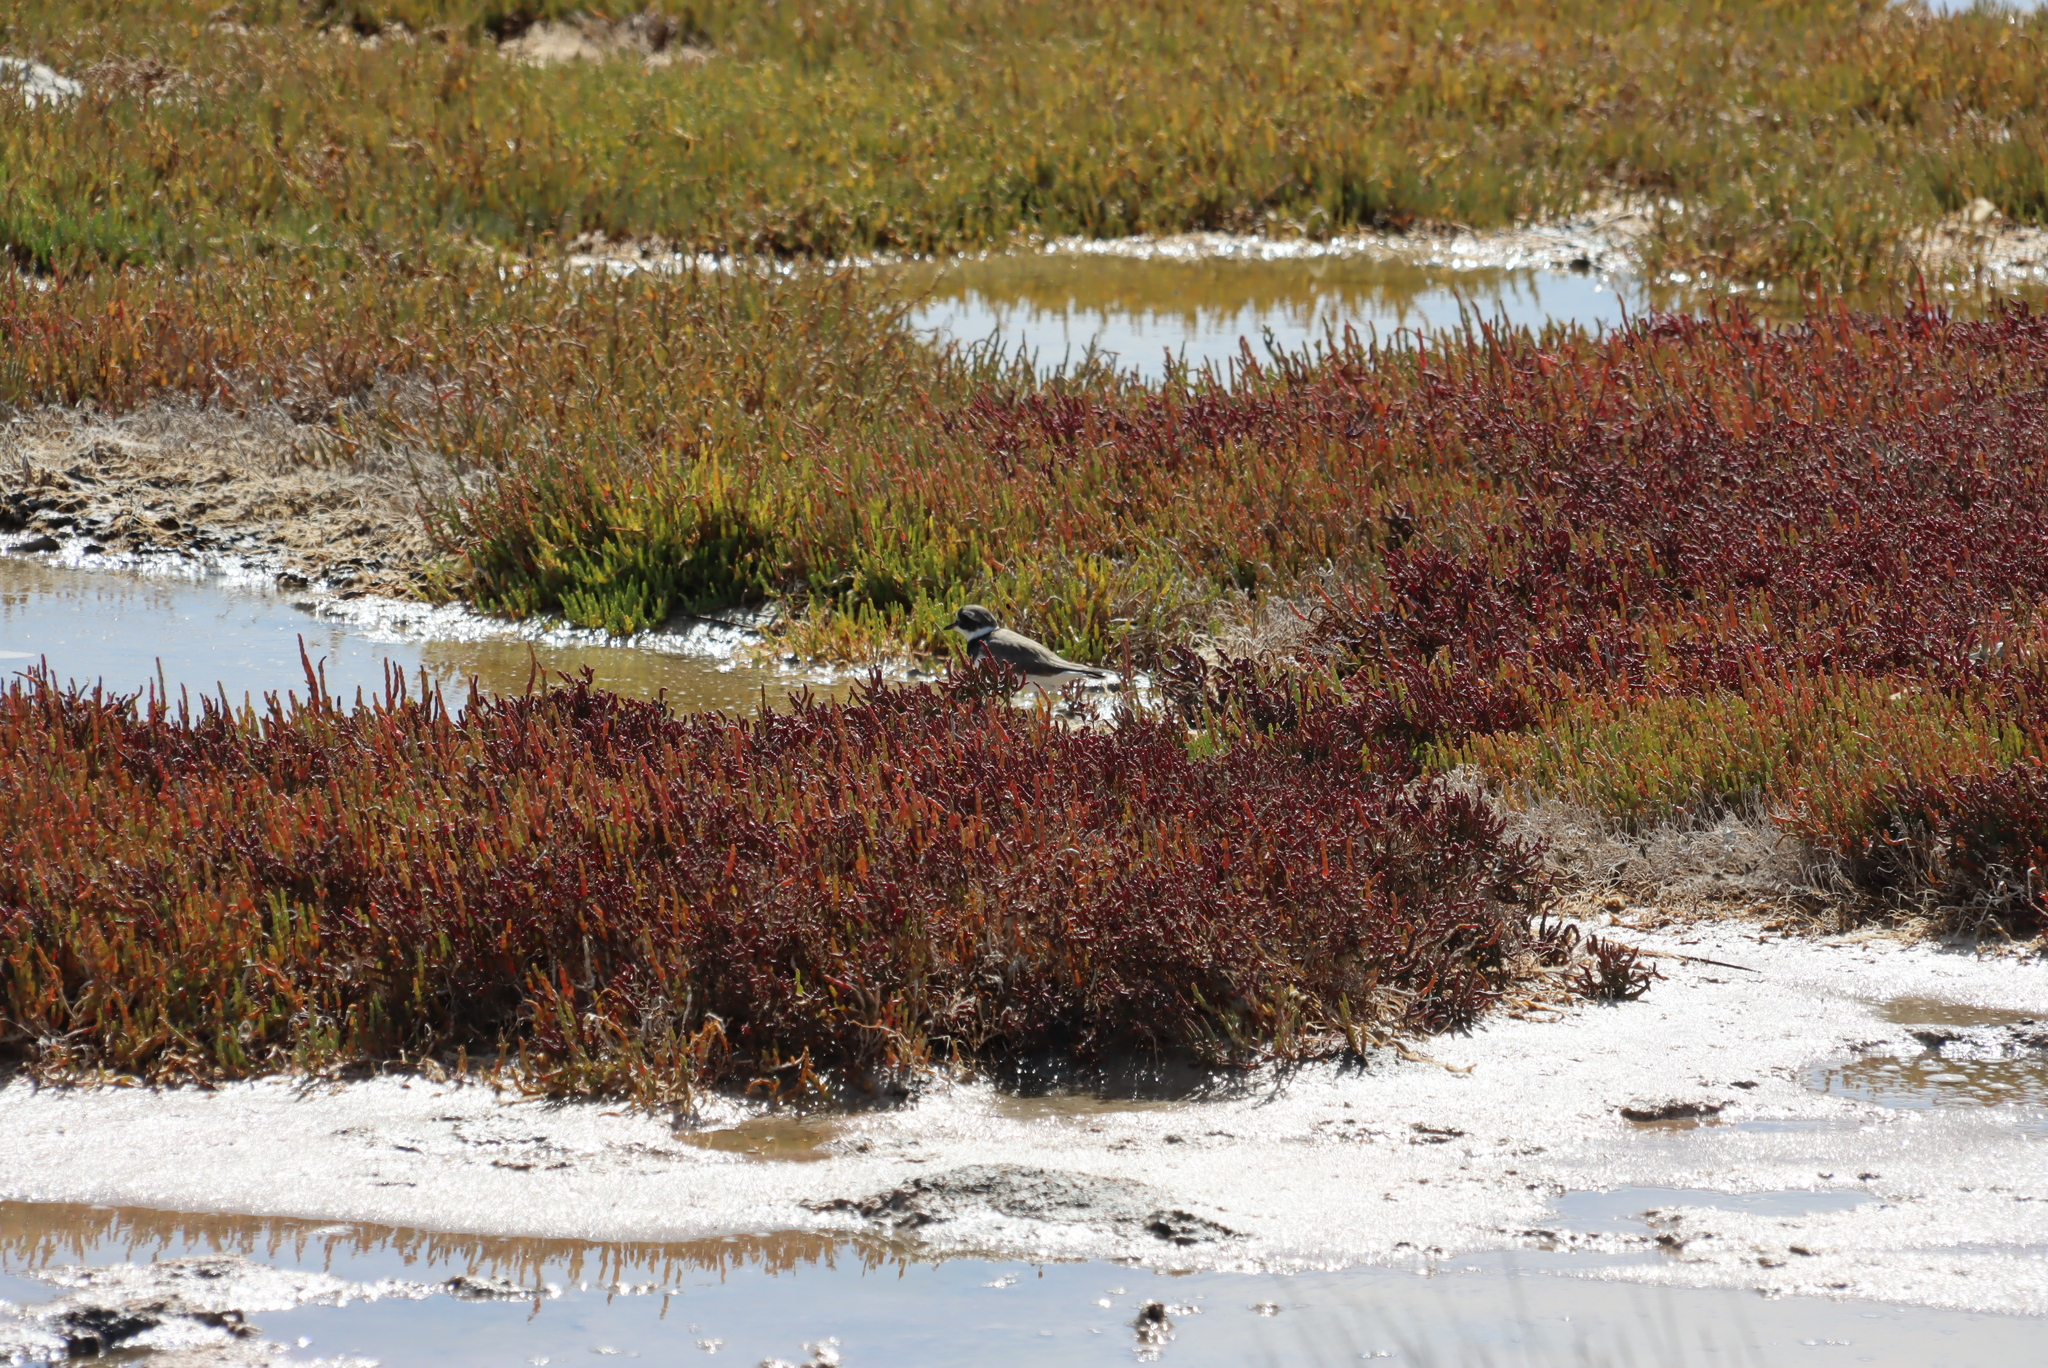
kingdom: Animalia
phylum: Chordata
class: Aves
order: Charadriiformes
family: Charadriidae
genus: Charadrius
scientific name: Charadrius hiaticula
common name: Common ringed plover
